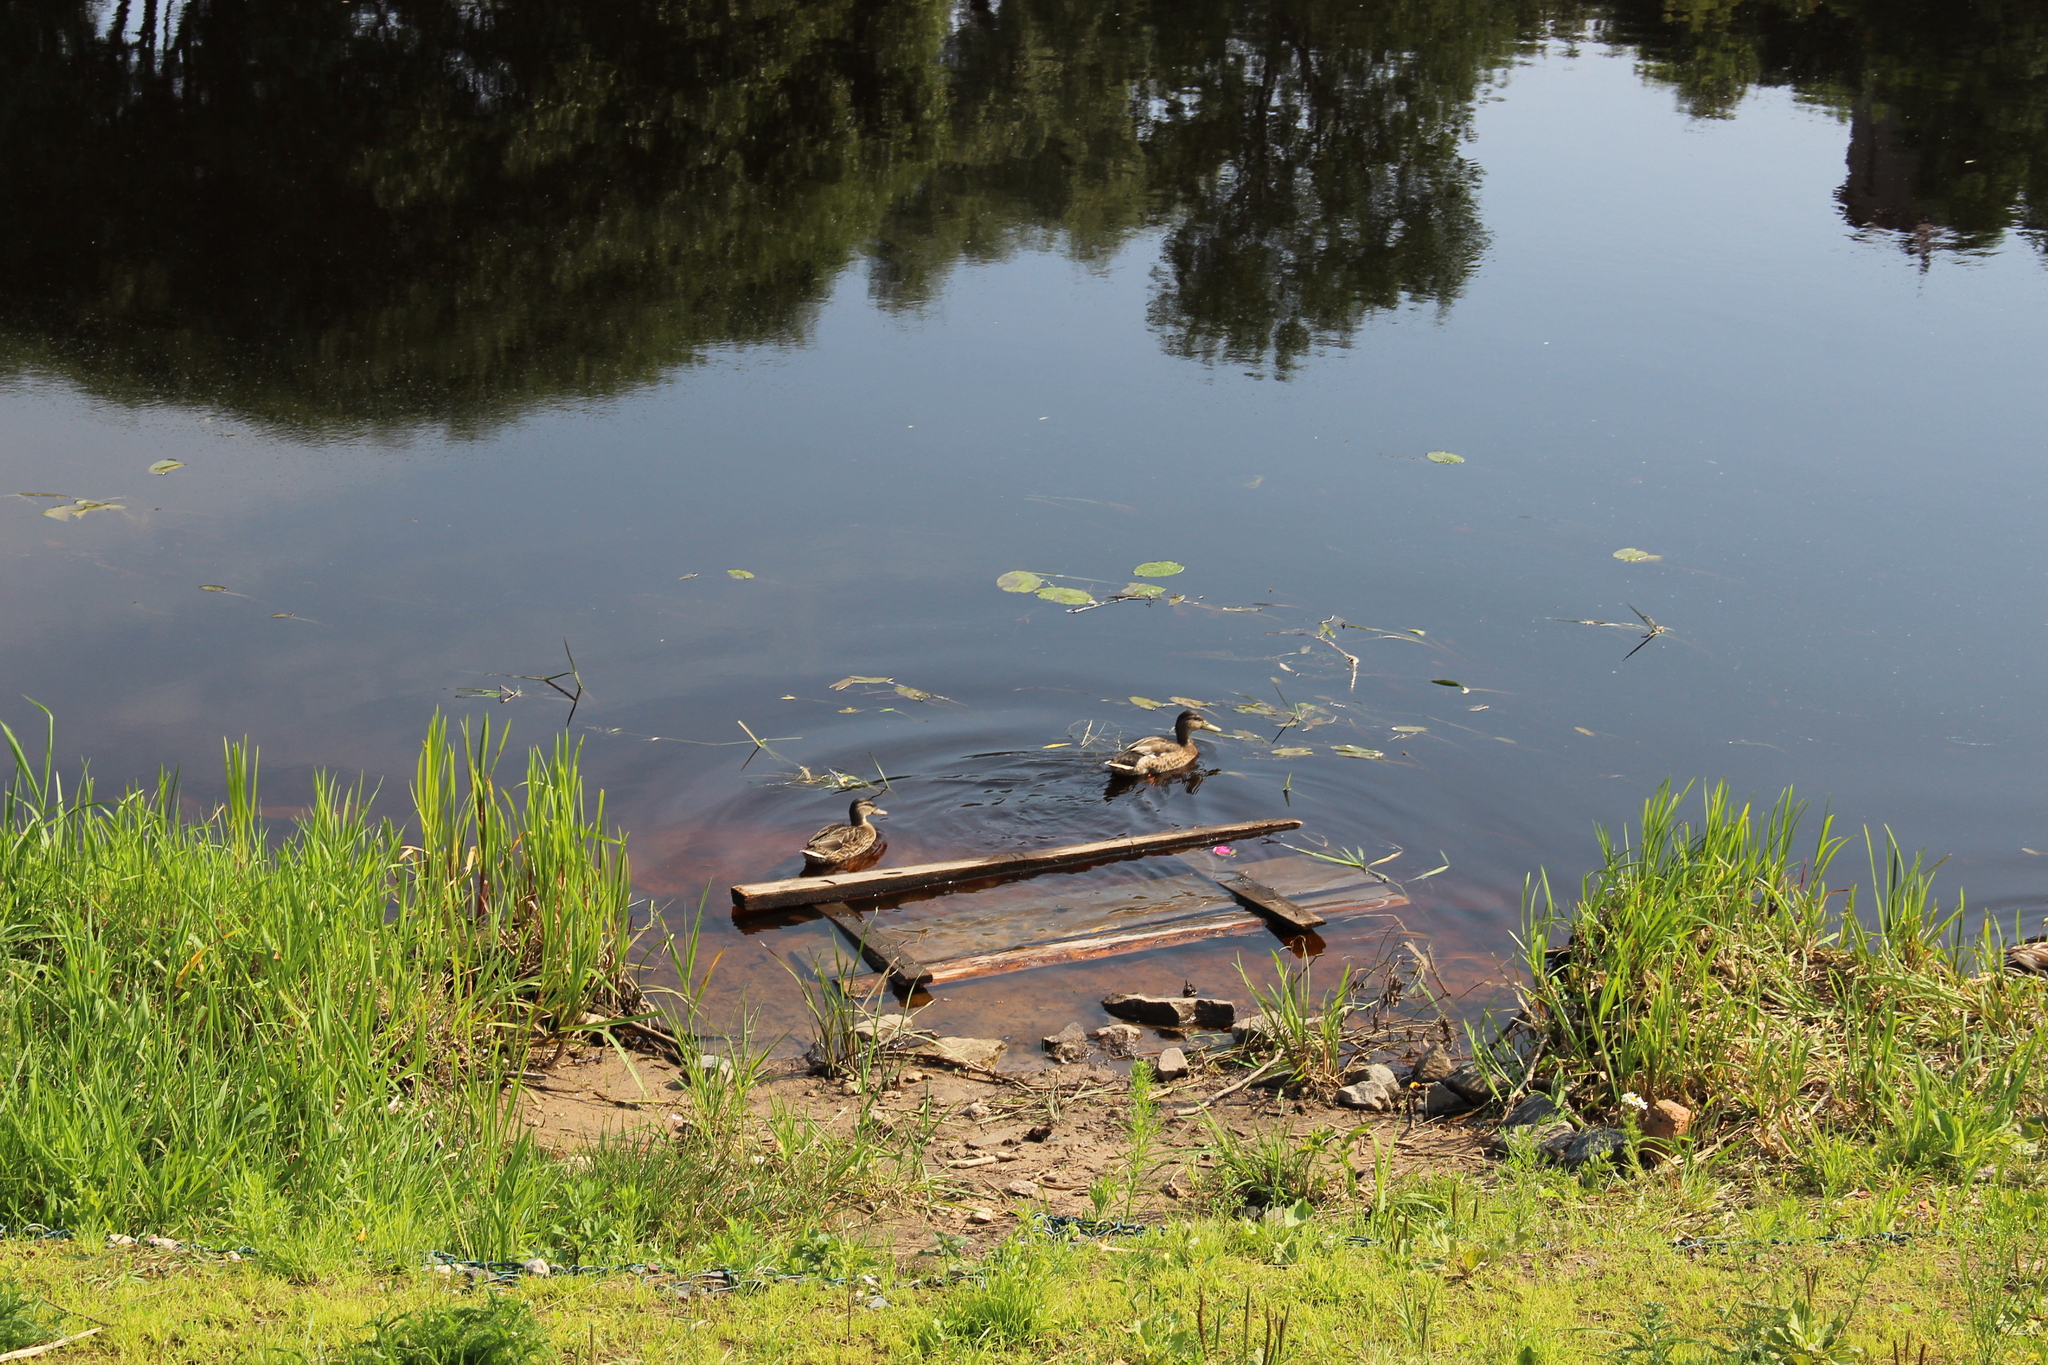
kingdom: Animalia
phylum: Chordata
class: Aves
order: Anseriformes
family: Anatidae
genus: Anas
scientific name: Anas platyrhynchos
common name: Mallard
